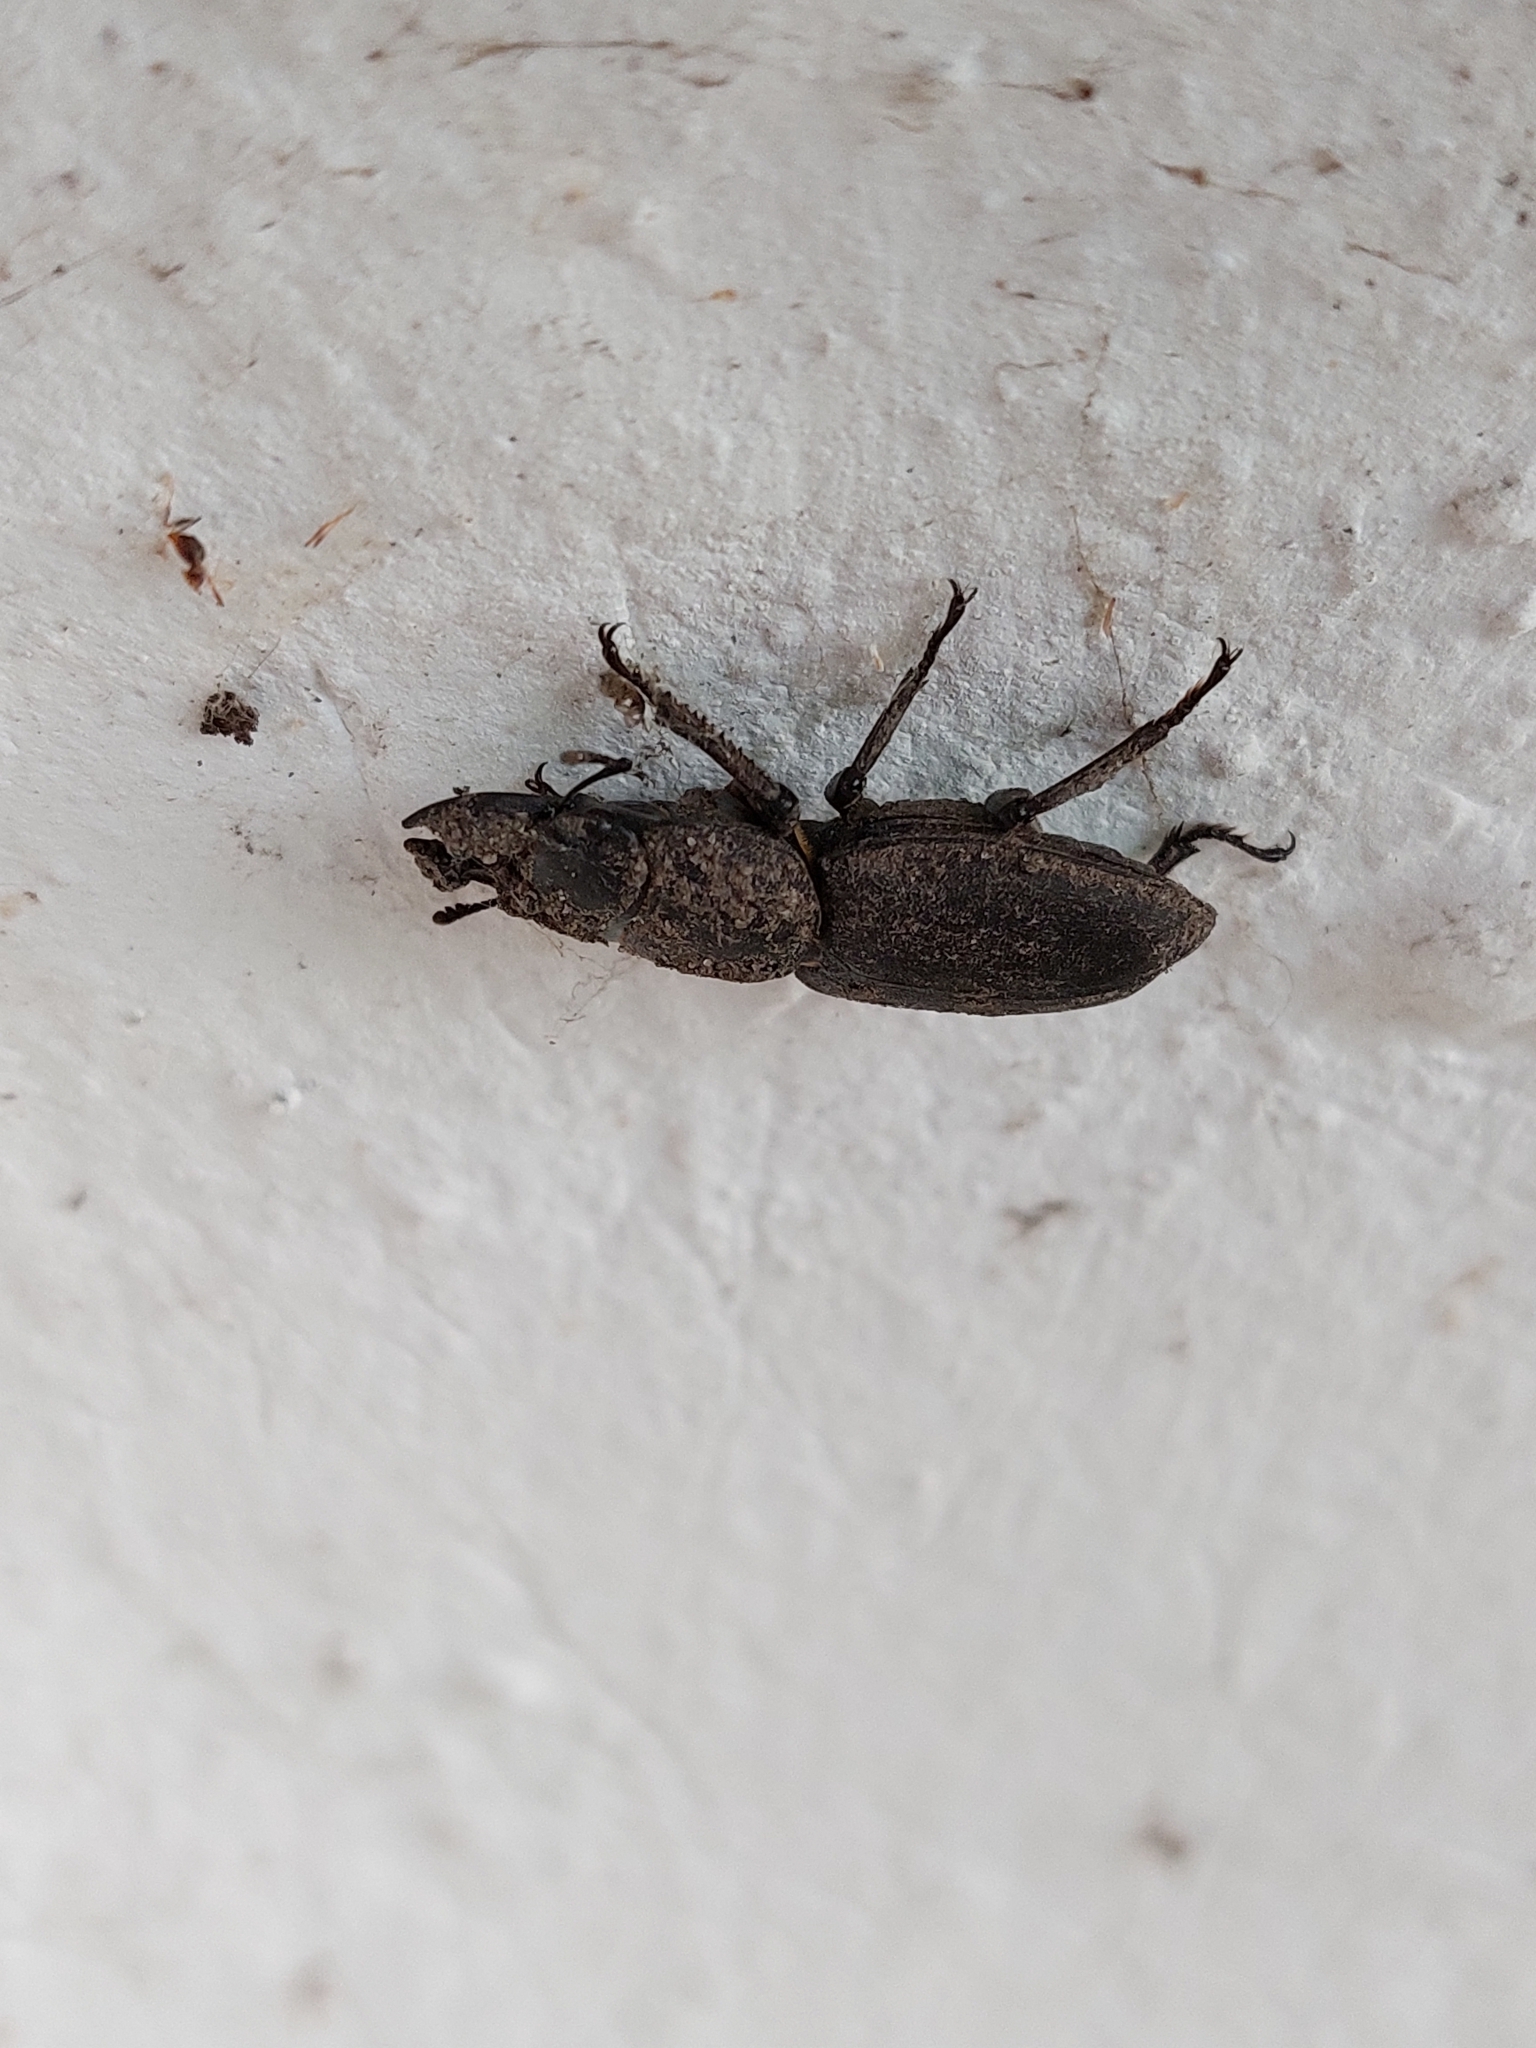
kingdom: Animalia
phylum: Arthropoda
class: Insecta
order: Coleoptera
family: Lucanidae
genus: Dorcus
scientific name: Dorcus parallelipipedus
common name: Lesser stag beetle
